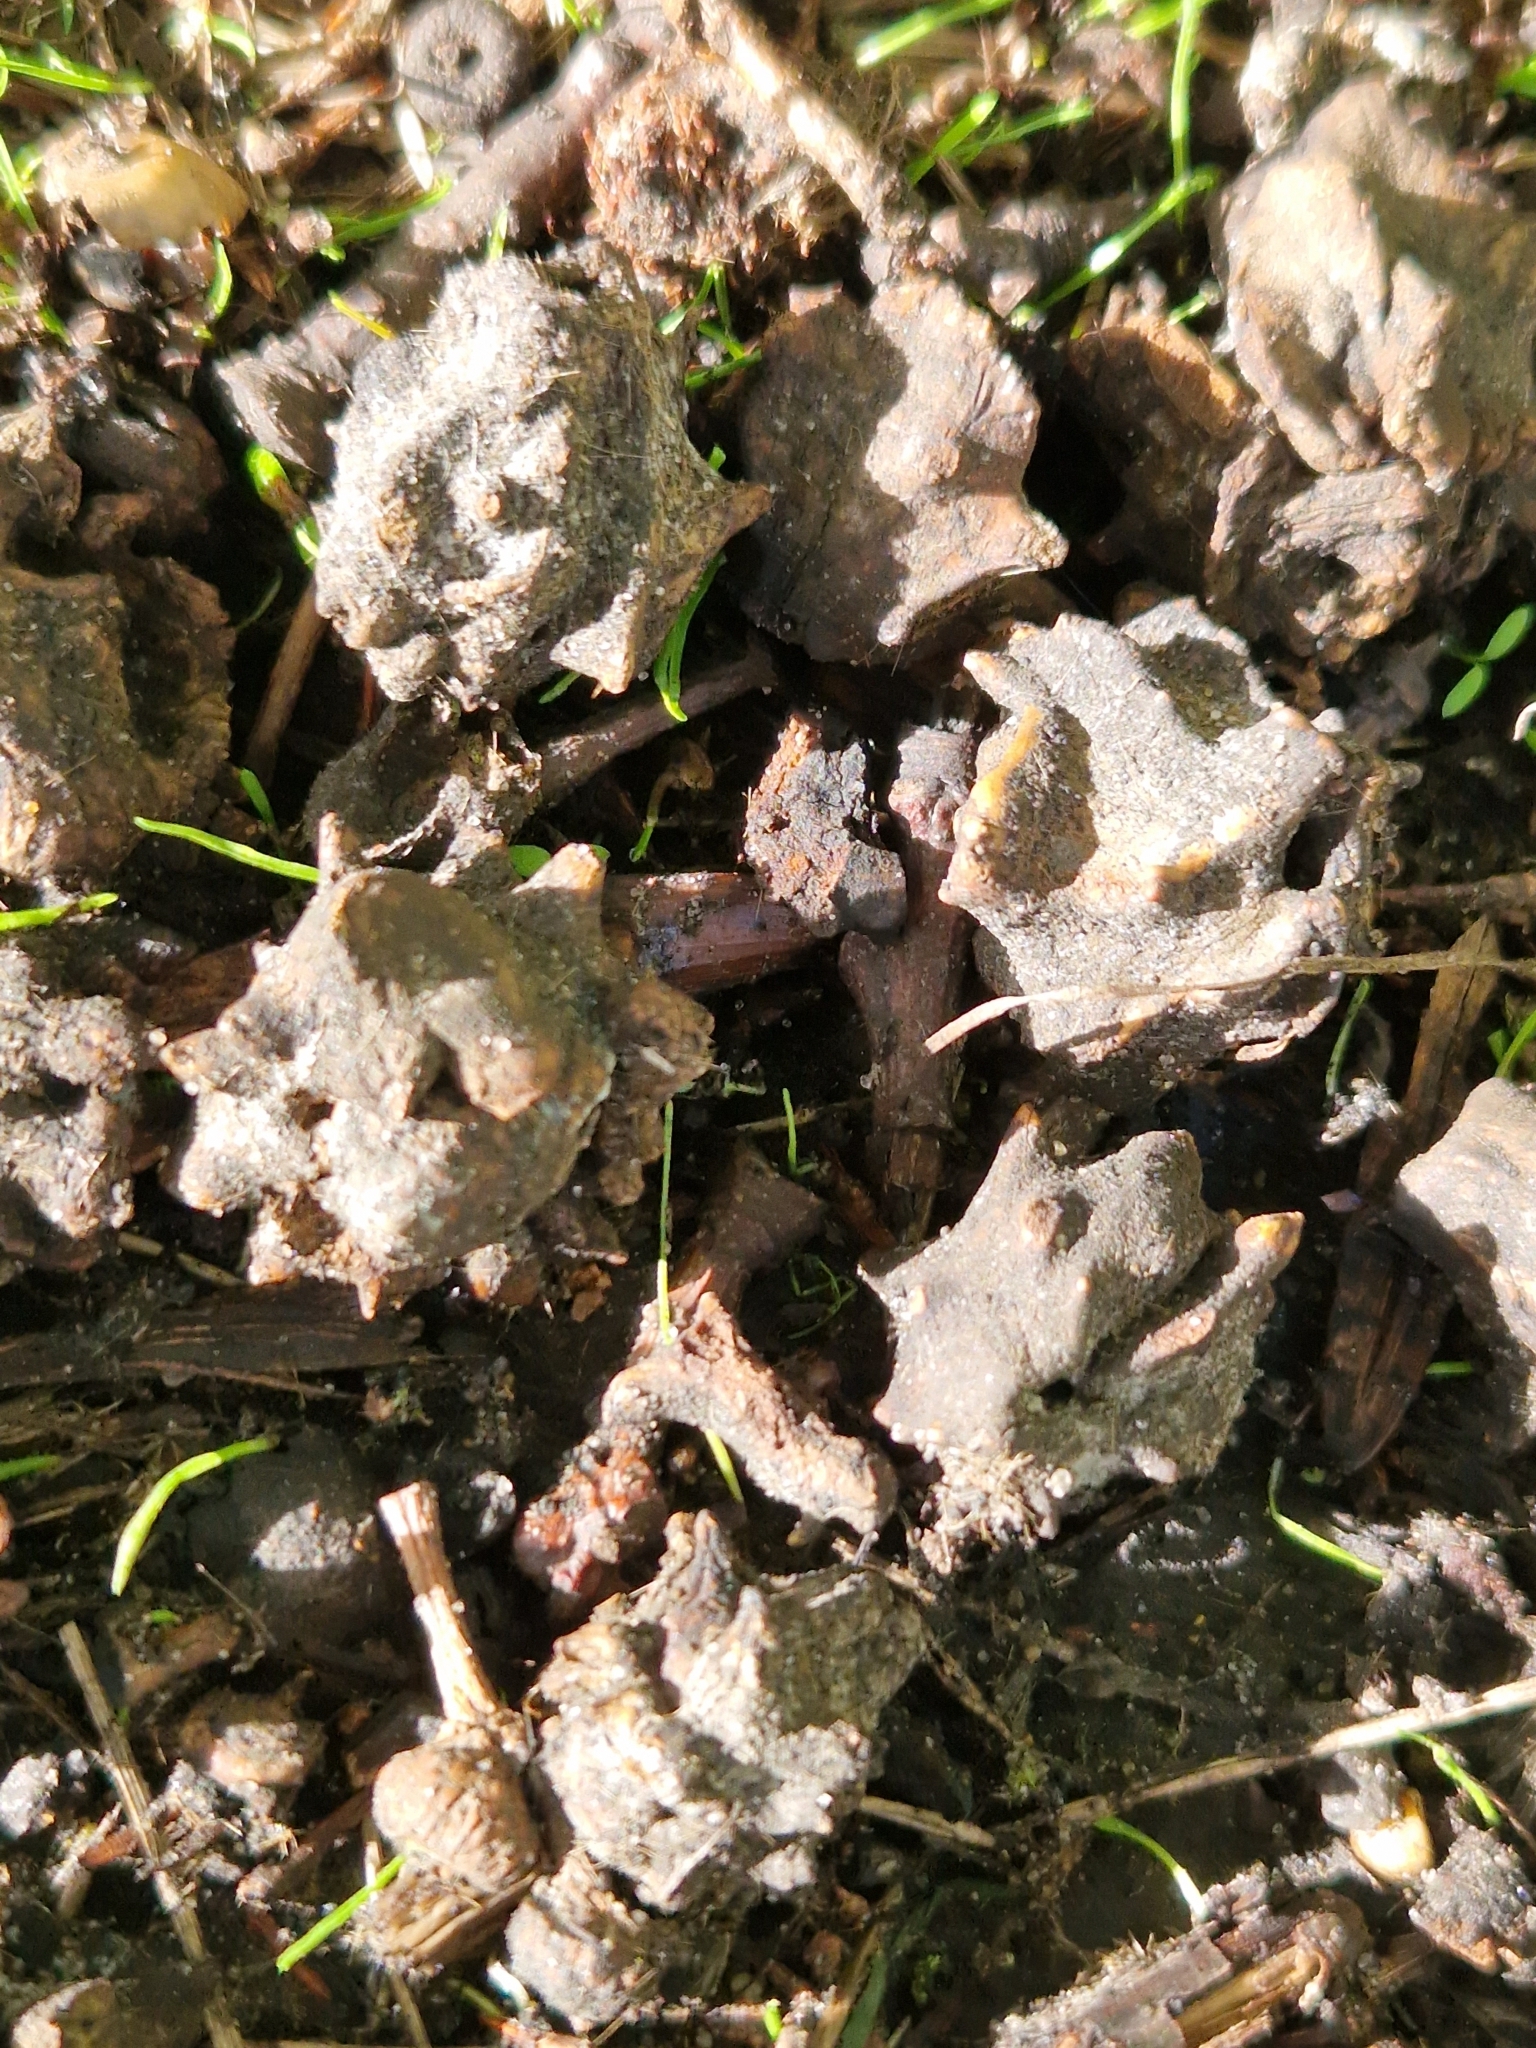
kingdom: Animalia
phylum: Arthropoda
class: Insecta
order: Hymenoptera
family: Cynipidae
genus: Andricus
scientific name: Andricus quercuscalicis
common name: Knopper gall
